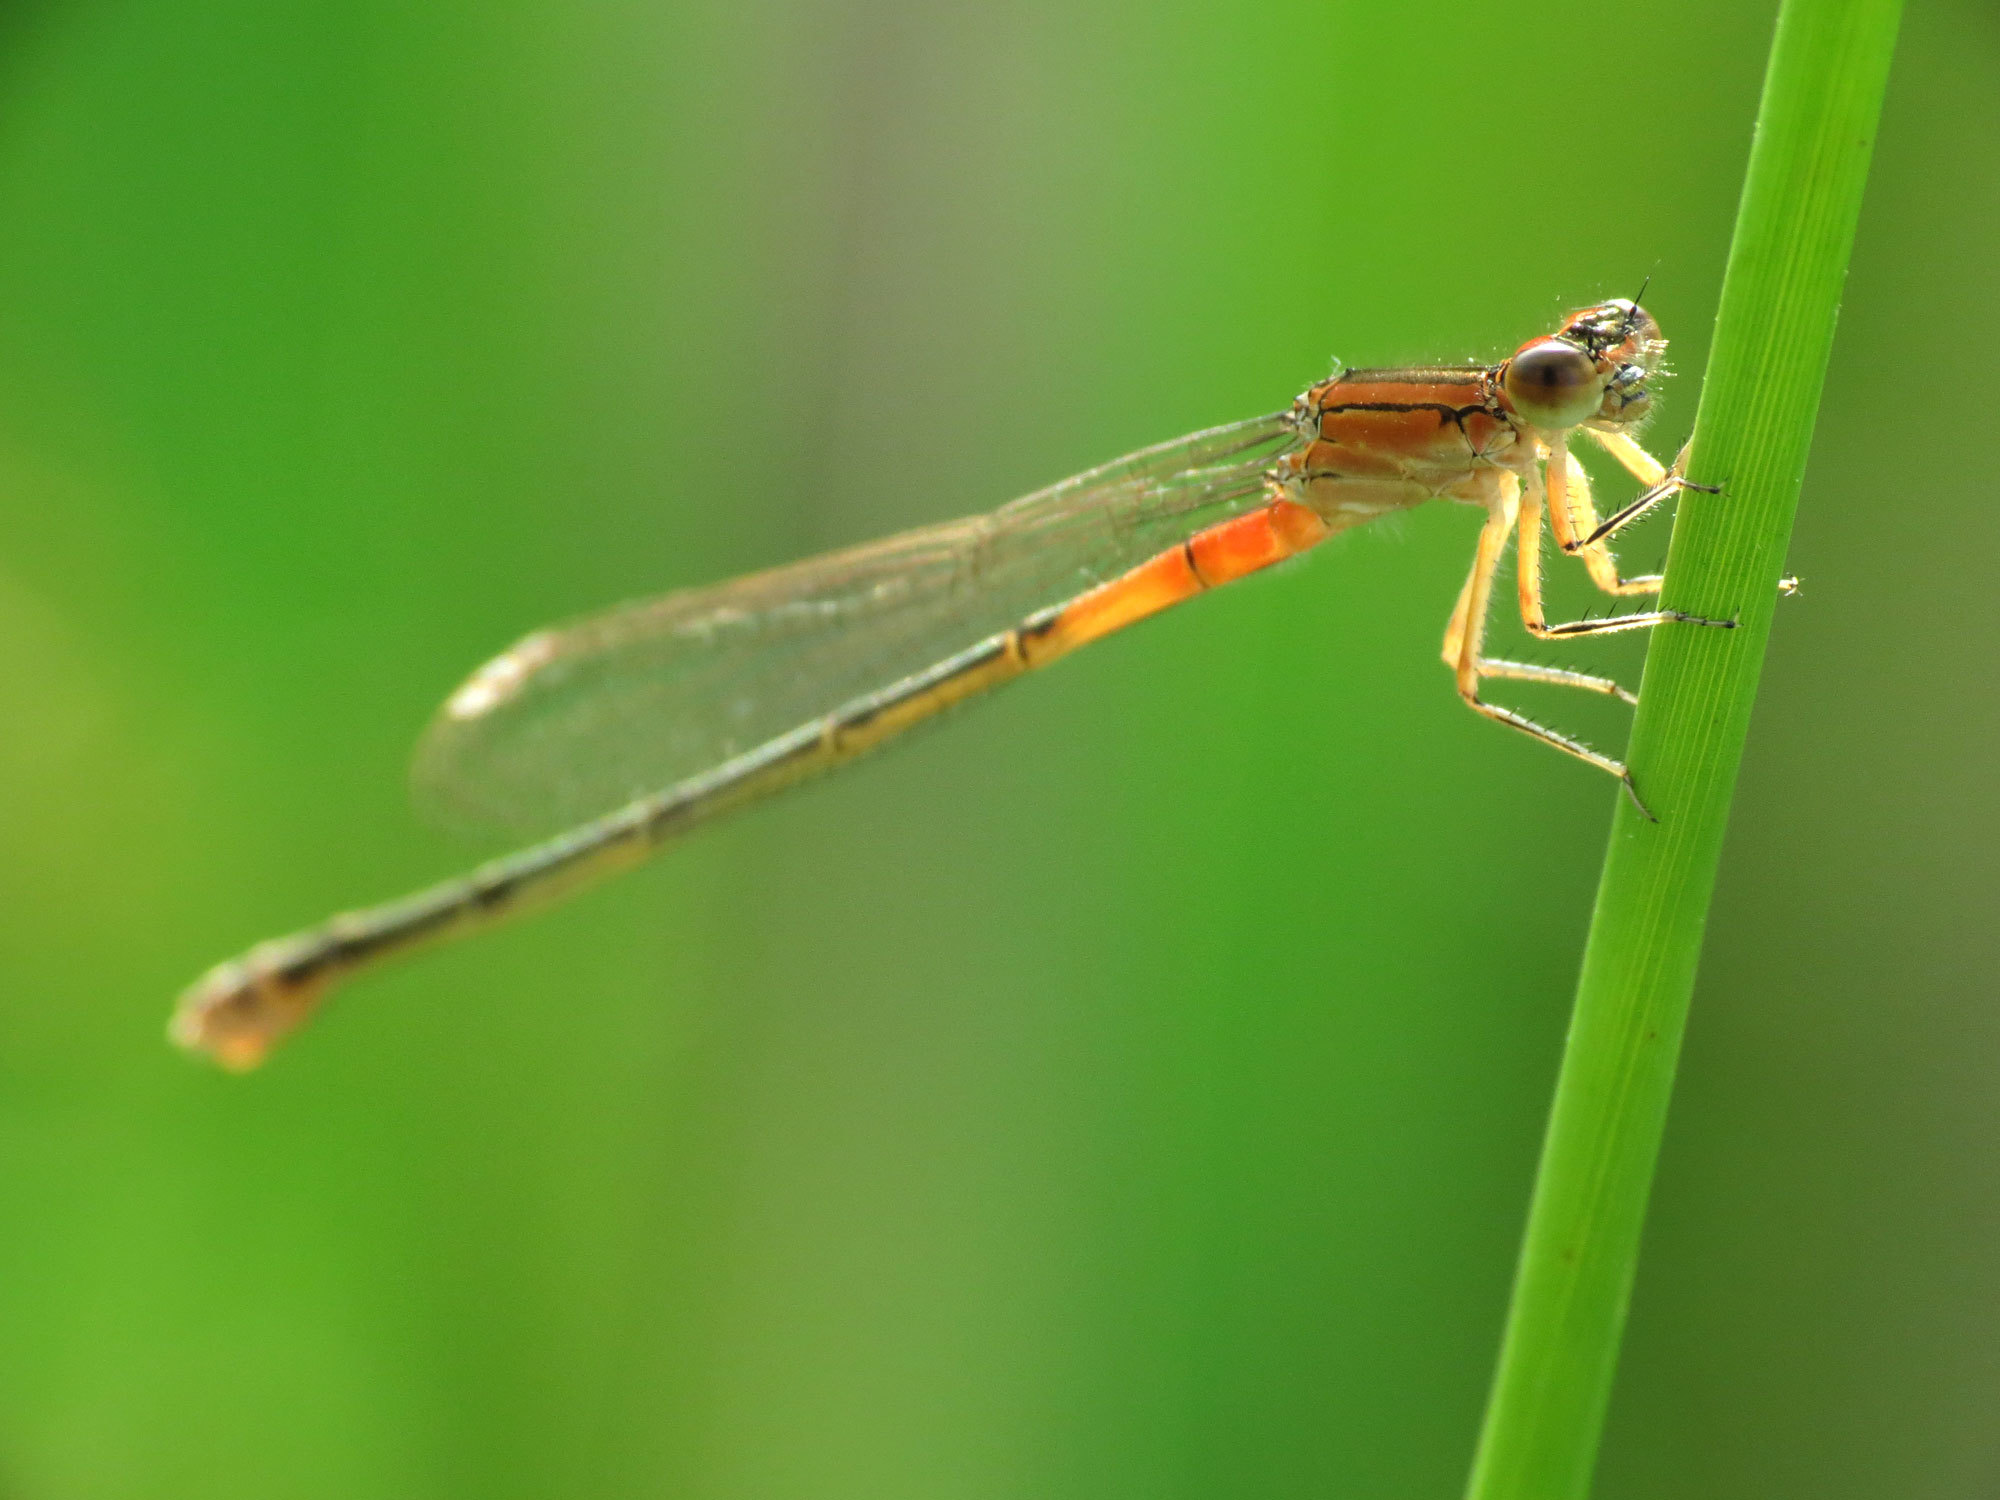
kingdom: Animalia
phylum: Arthropoda
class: Insecta
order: Odonata
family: Coenagrionidae
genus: Ischnura
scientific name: Ischnura verticalis
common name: Eastern forktail
